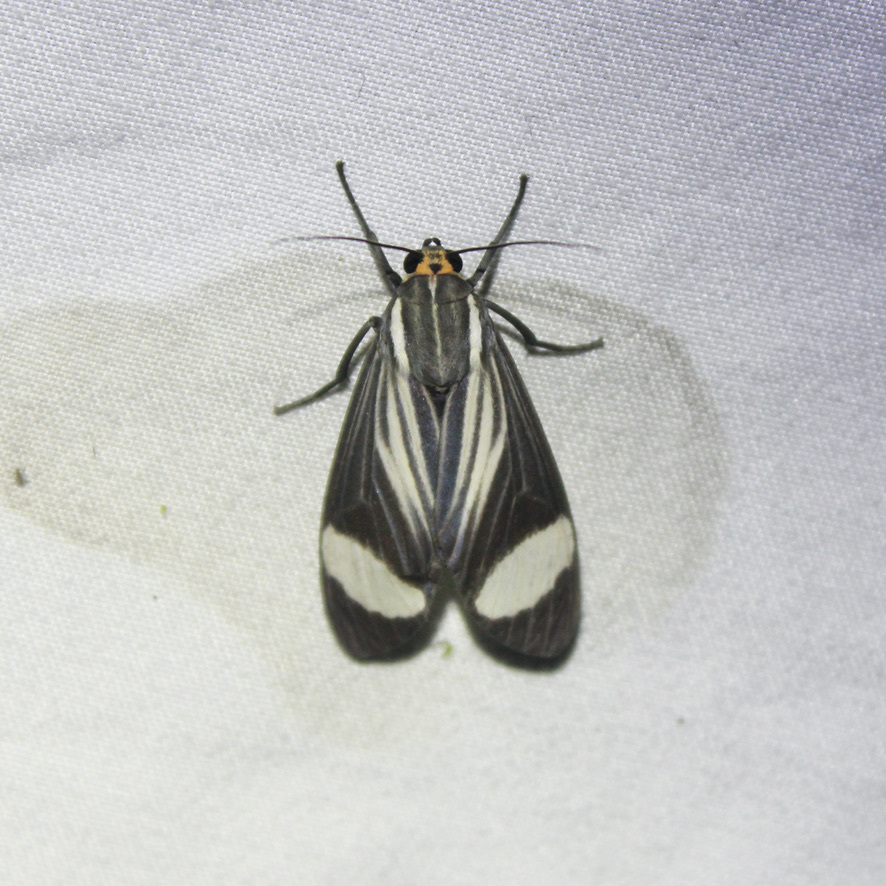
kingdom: Animalia
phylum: Arthropoda
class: Insecta
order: Lepidoptera
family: Erebidae
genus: Rhipha
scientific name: Rhipha leucoplaga
